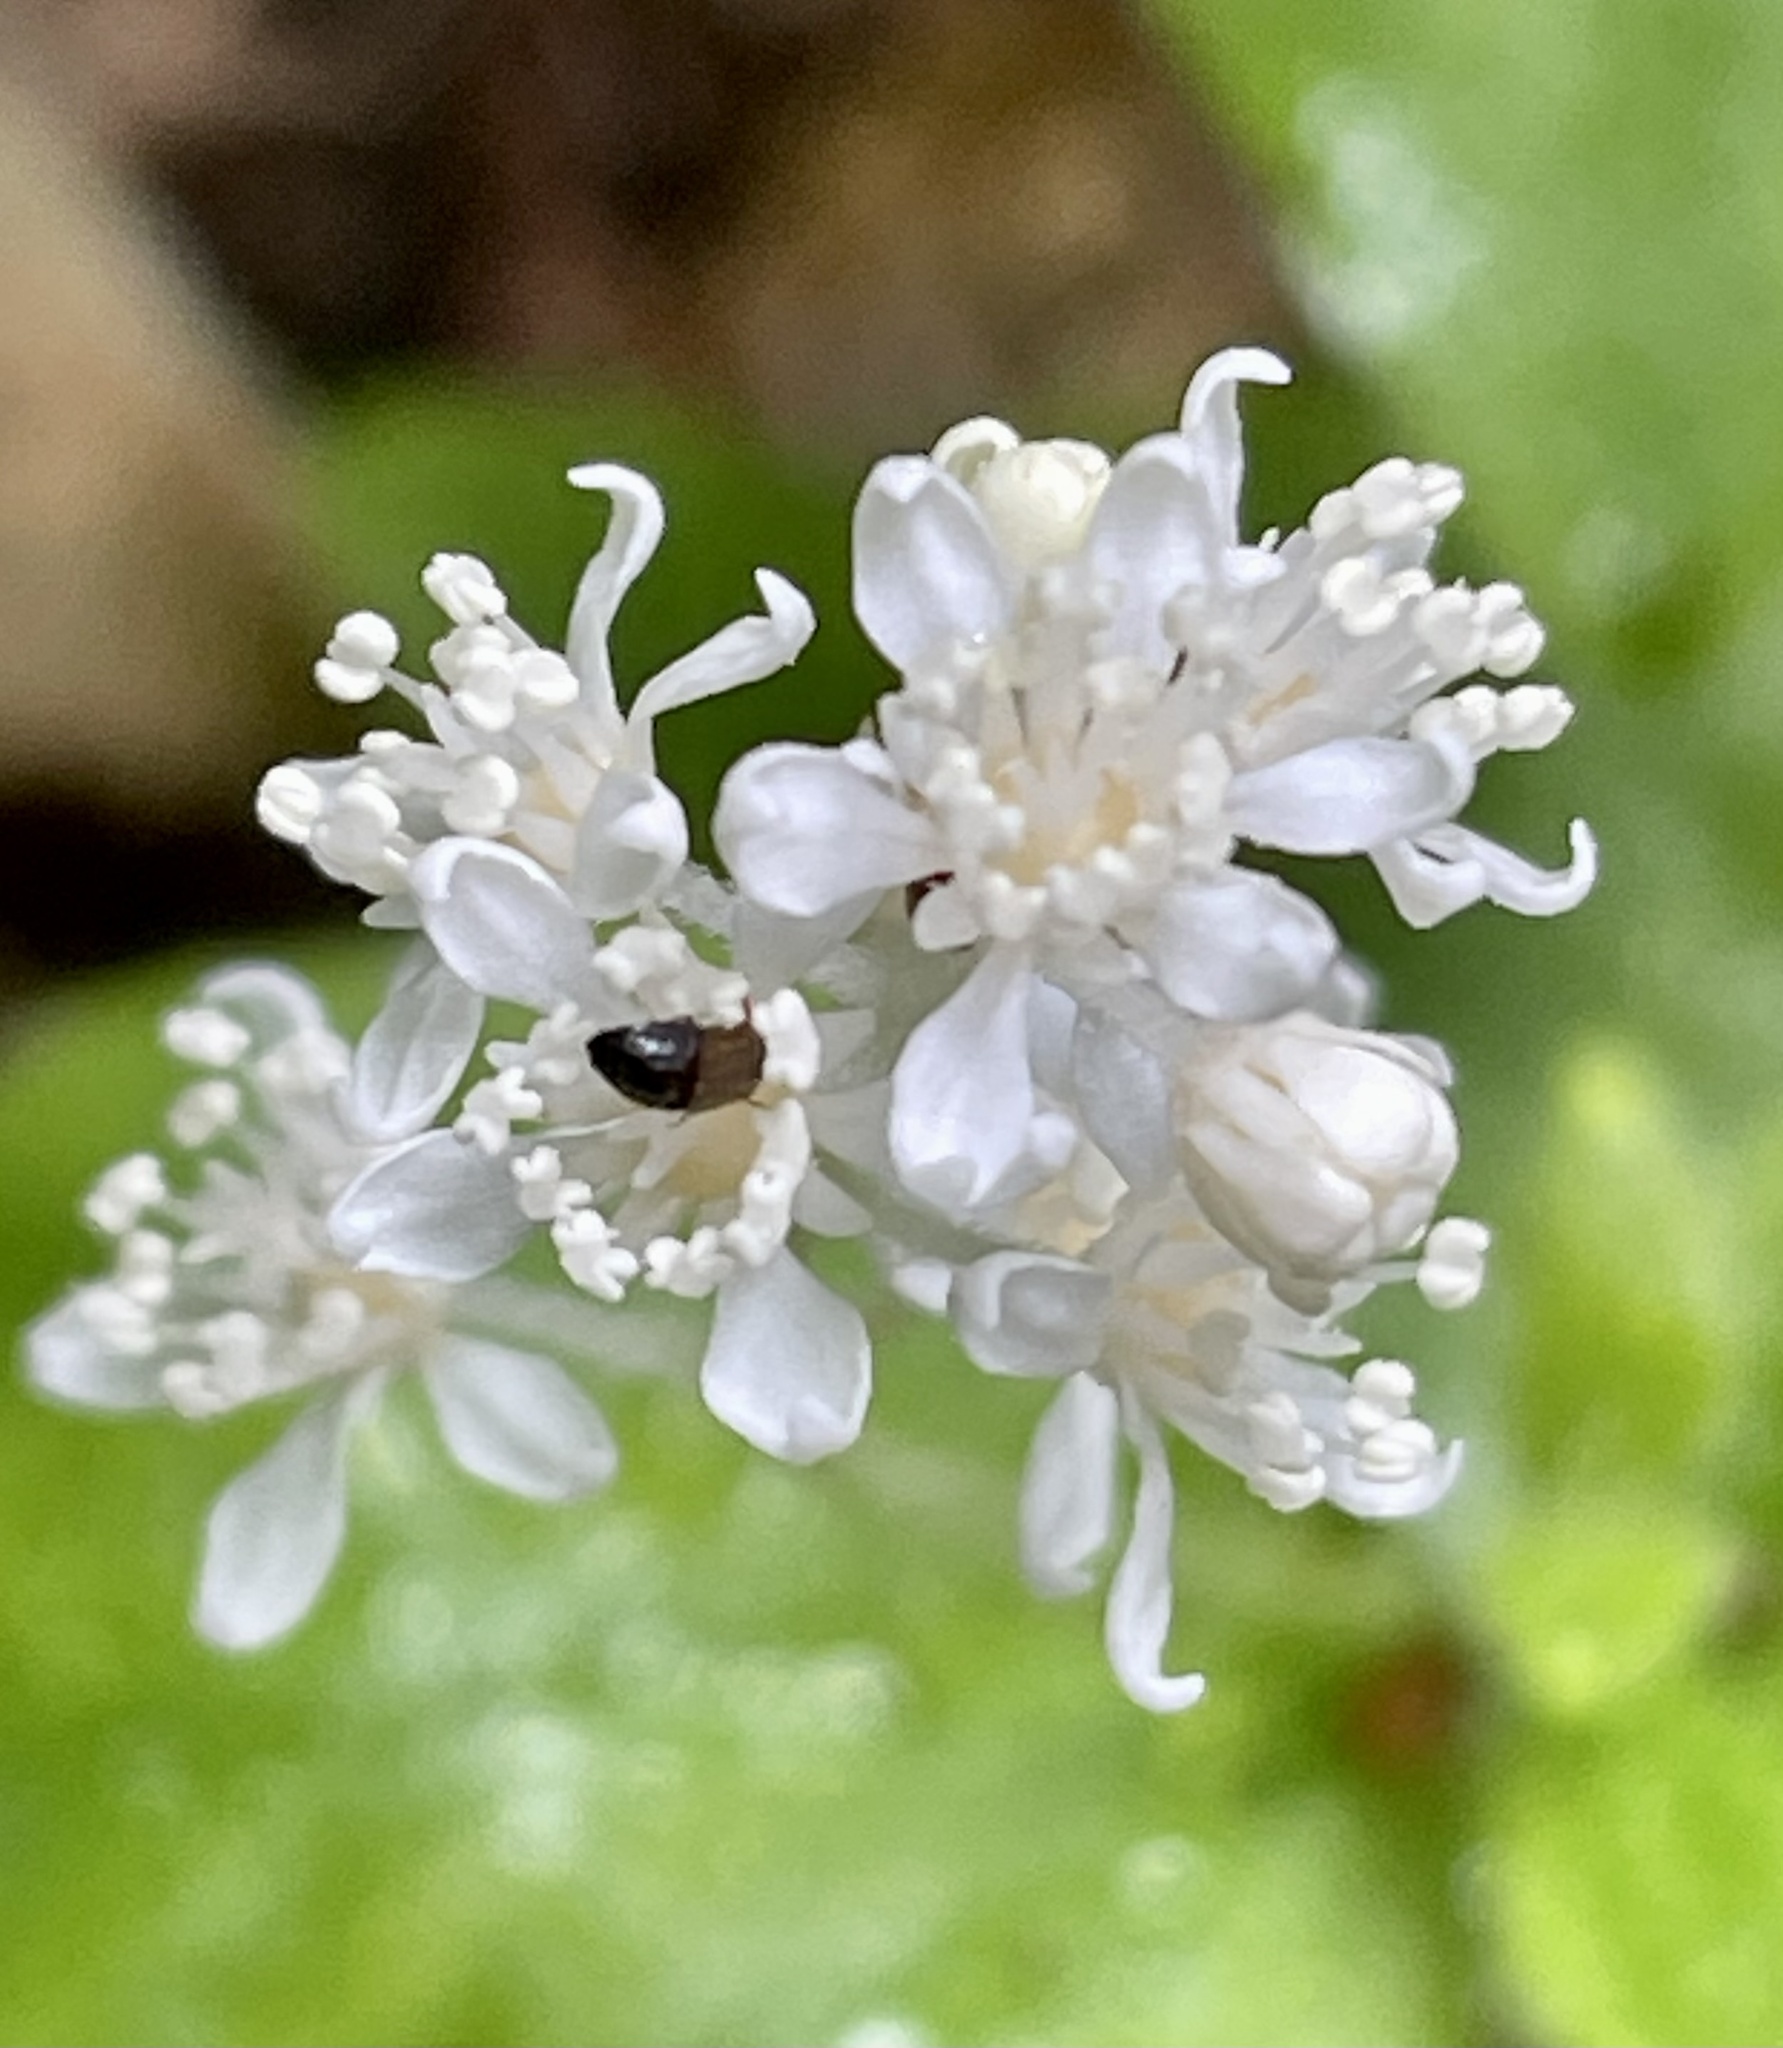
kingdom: Plantae
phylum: Tracheophyta
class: Magnoliopsida
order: Cornales
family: Hydrangeaceae
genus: Whipplea
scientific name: Whipplea modesta
